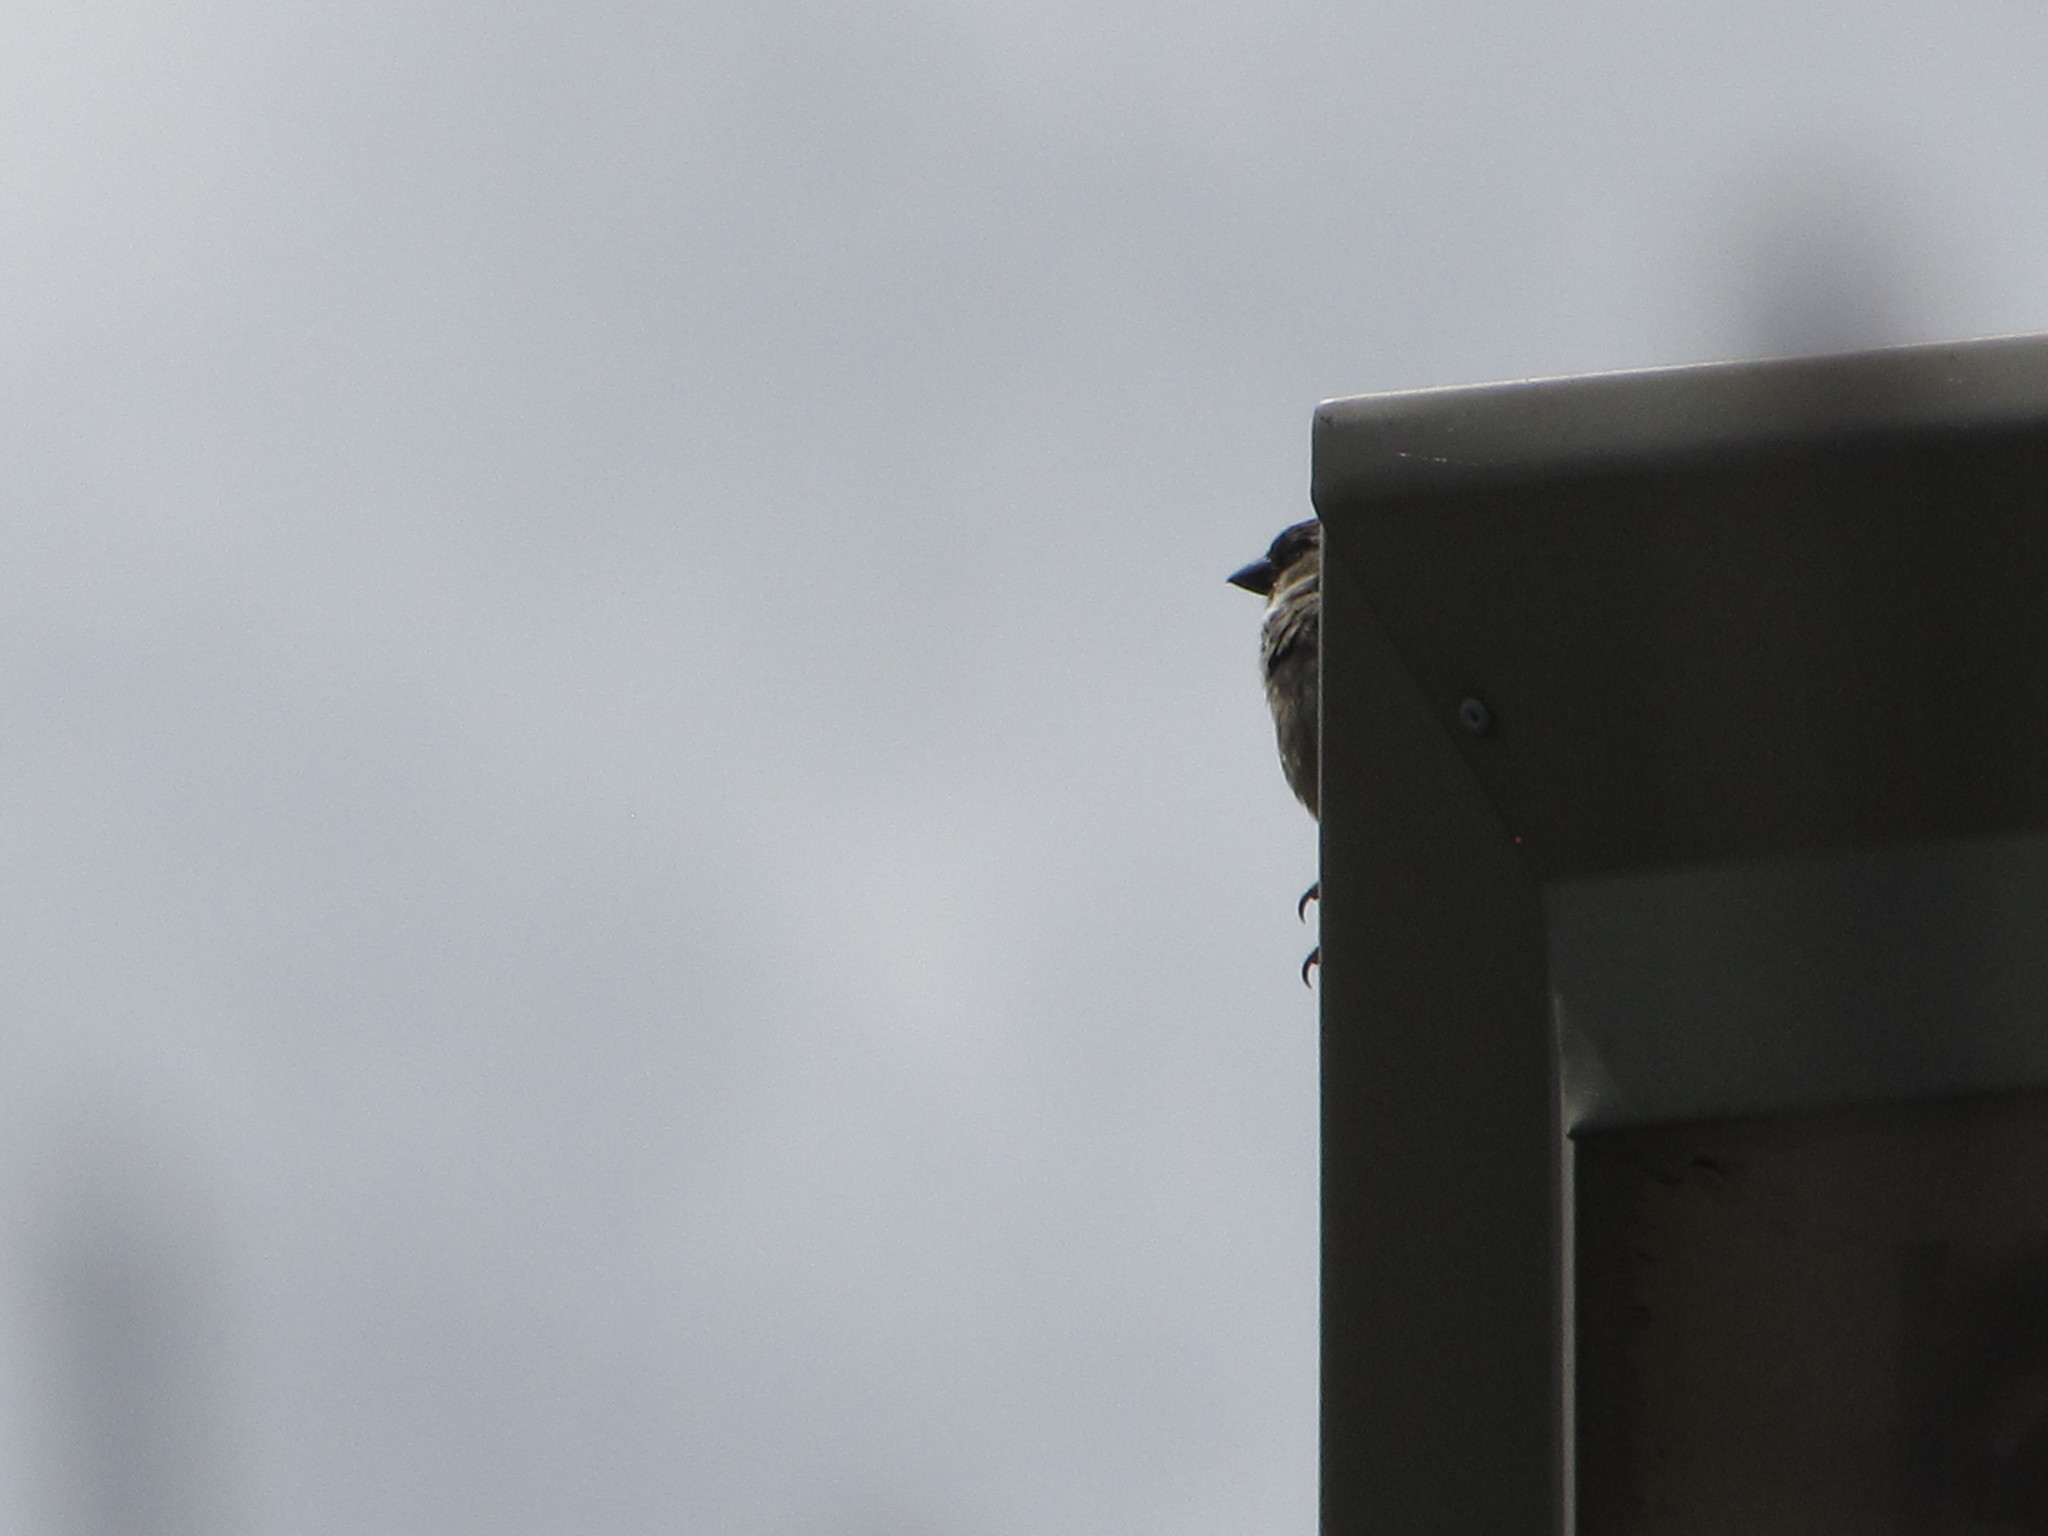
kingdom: Animalia
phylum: Chordata
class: Aves
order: Passeriformes
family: Passeridae
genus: Passer
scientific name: Passer domesticus
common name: House sparrow
